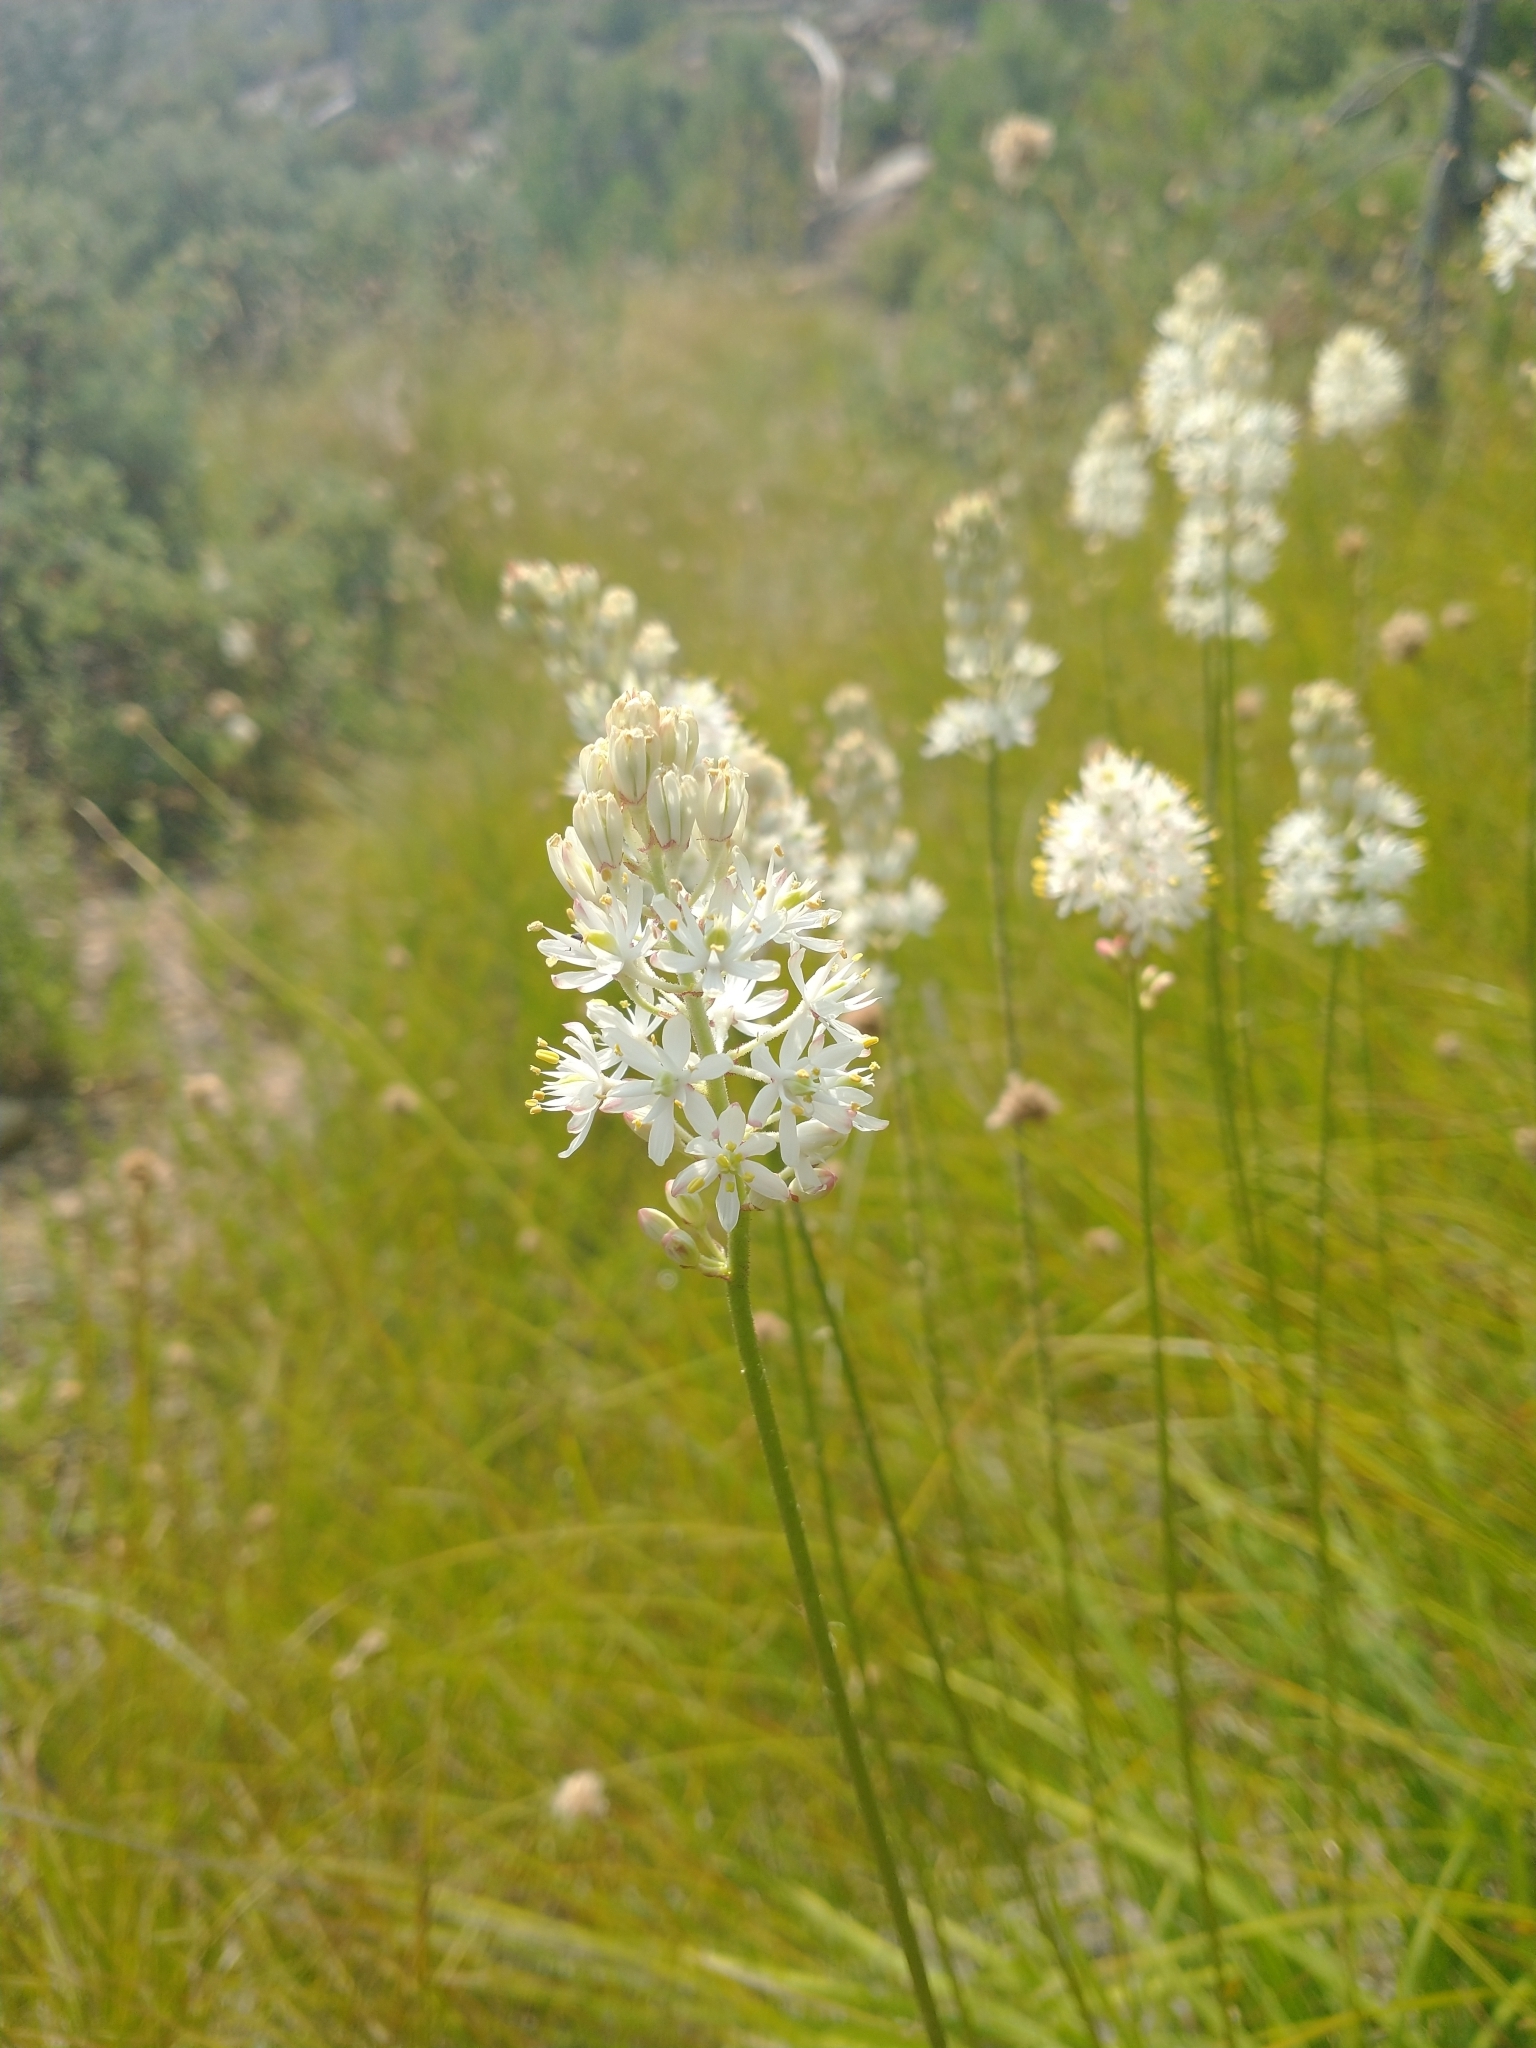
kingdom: Plantae
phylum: Tracheophyta
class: Liliopsida
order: Alismatales
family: Tofieldiaceae
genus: Triantha
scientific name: Triantha occidentalis
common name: Western false asphodel
